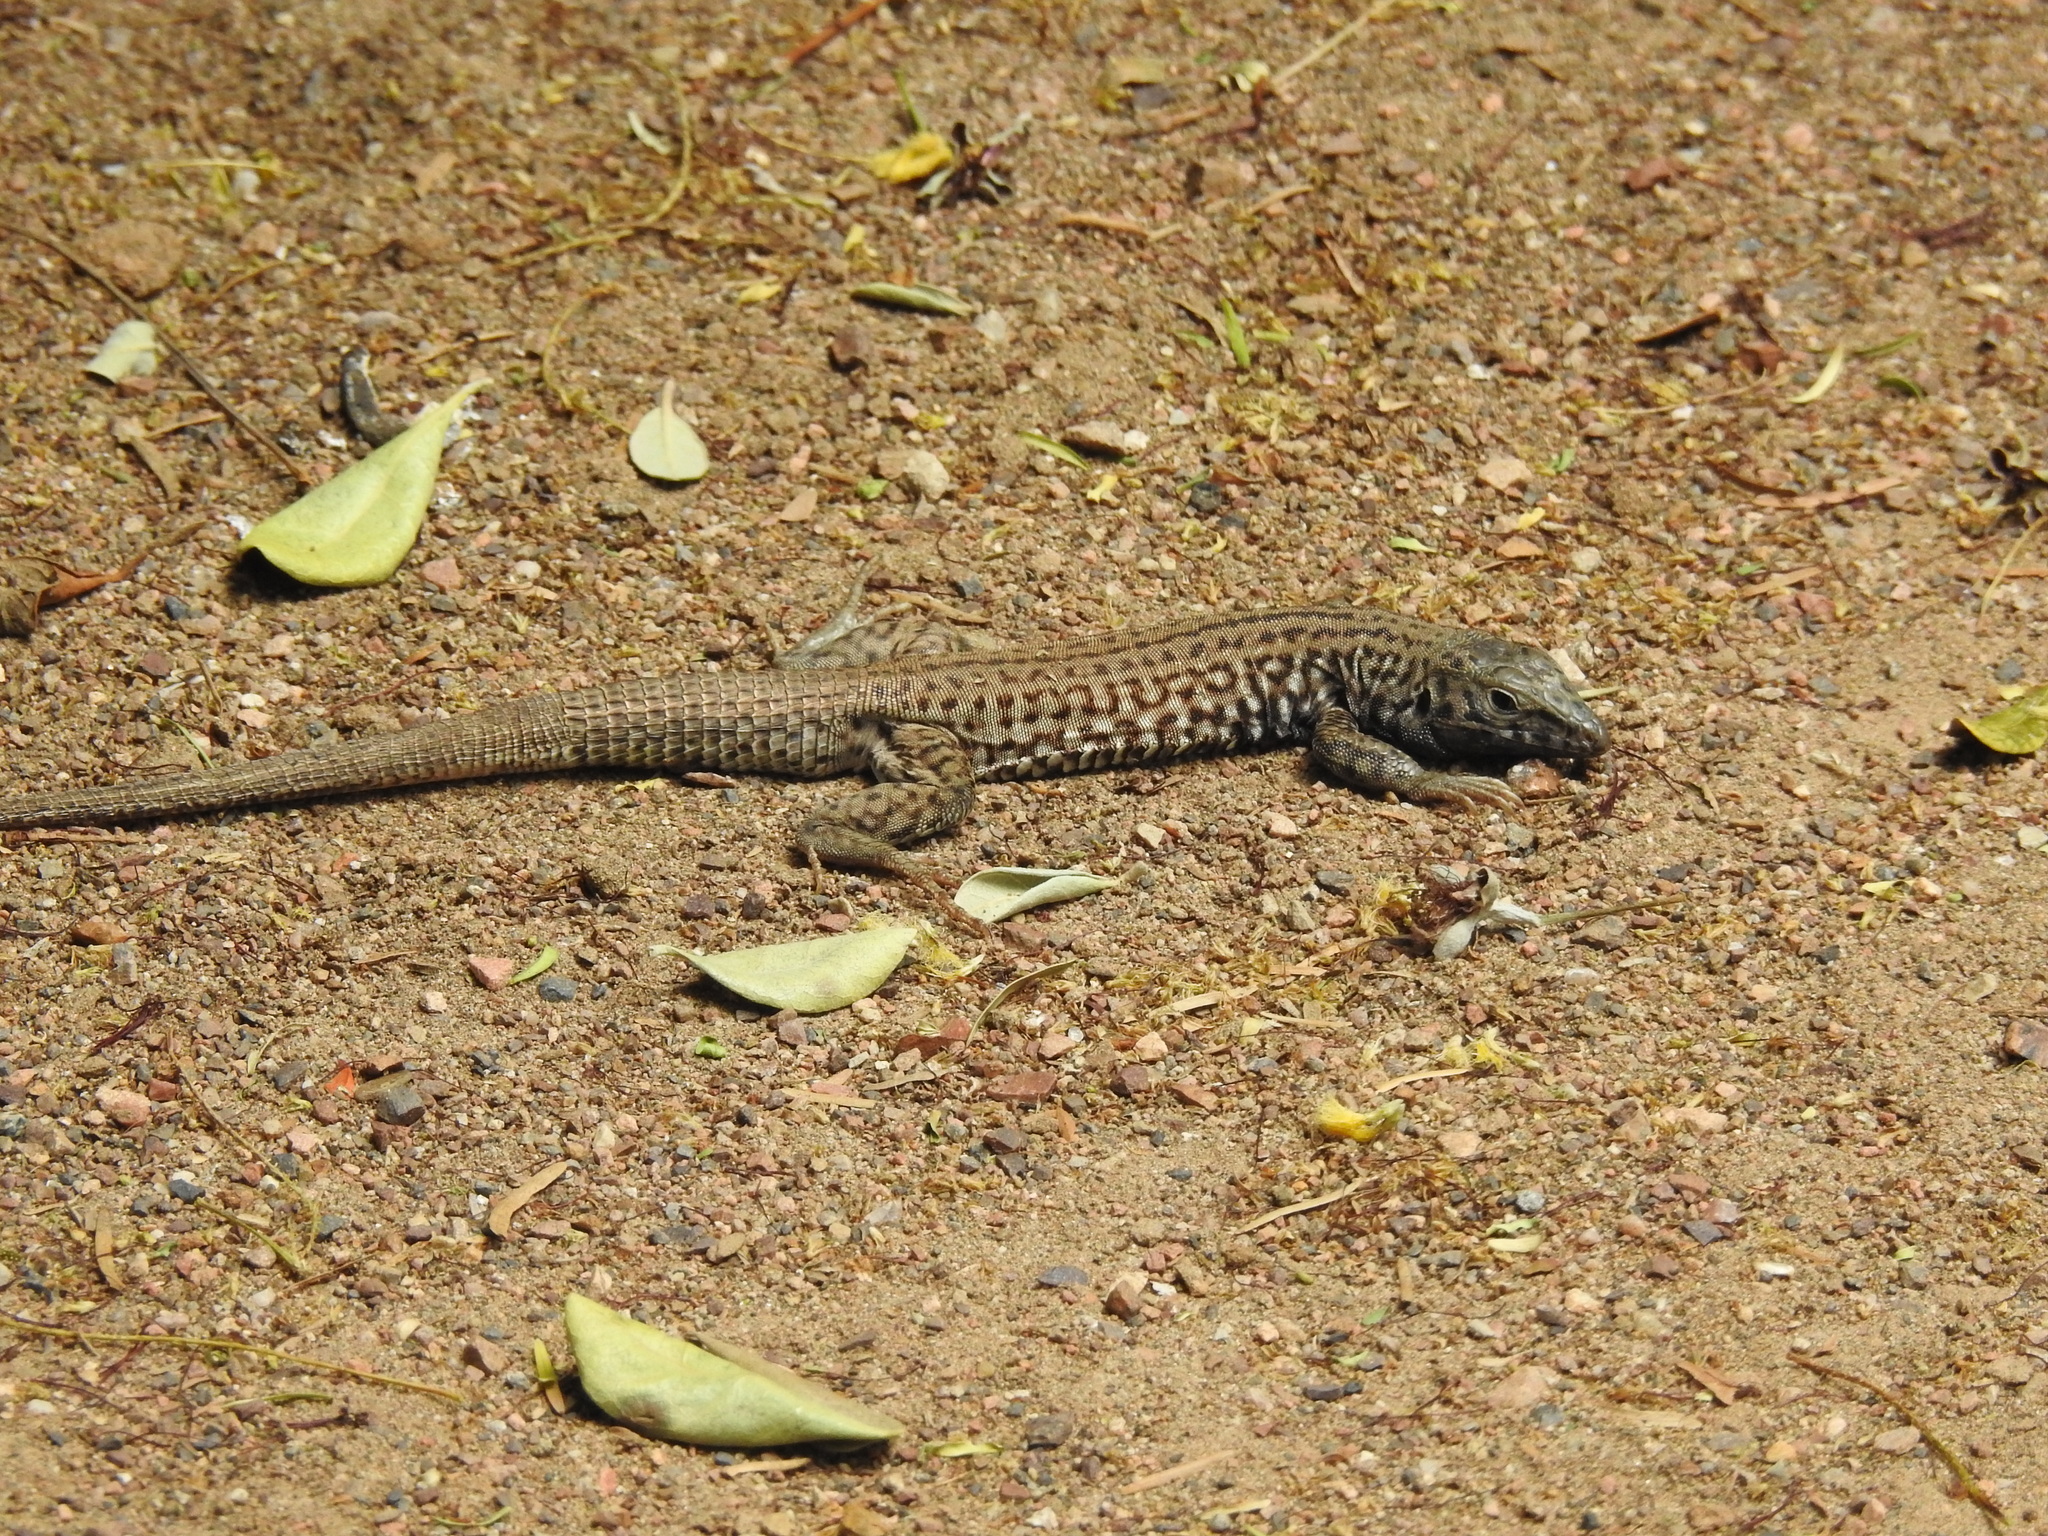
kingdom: Animalia
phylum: Chordata
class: Squamata
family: Teiidae
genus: Aspidoscelis
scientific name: Aspidoscelis tigris
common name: Tiger whiptail
